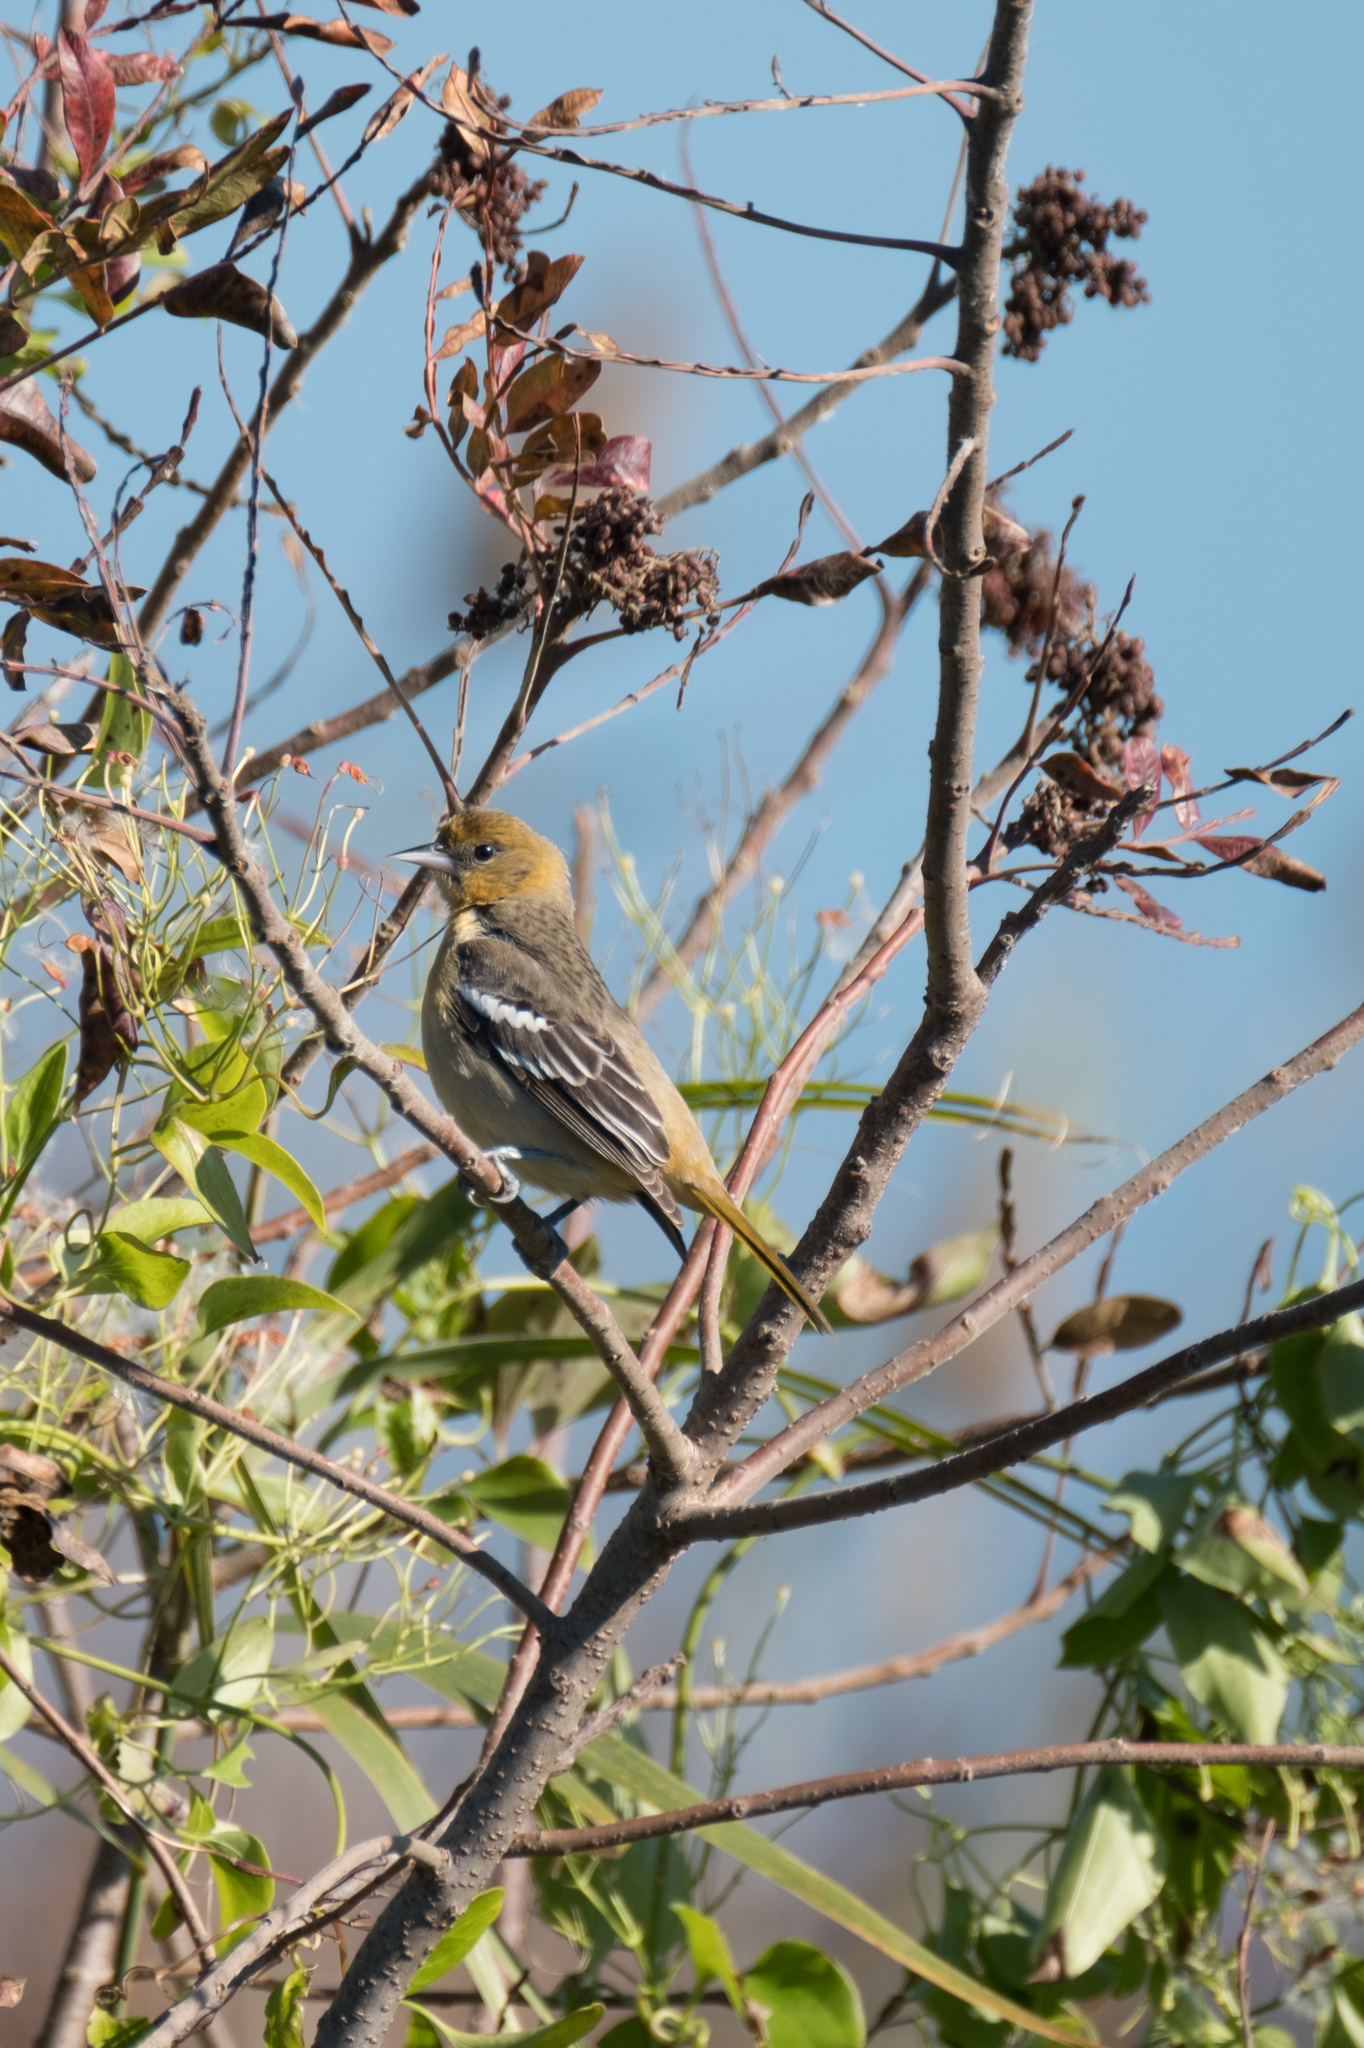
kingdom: Animalia
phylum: Chordata
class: Aves
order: Passeriformes
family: Icteridae
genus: Icterus
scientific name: Icterus galbula
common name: Baltimore oriole
